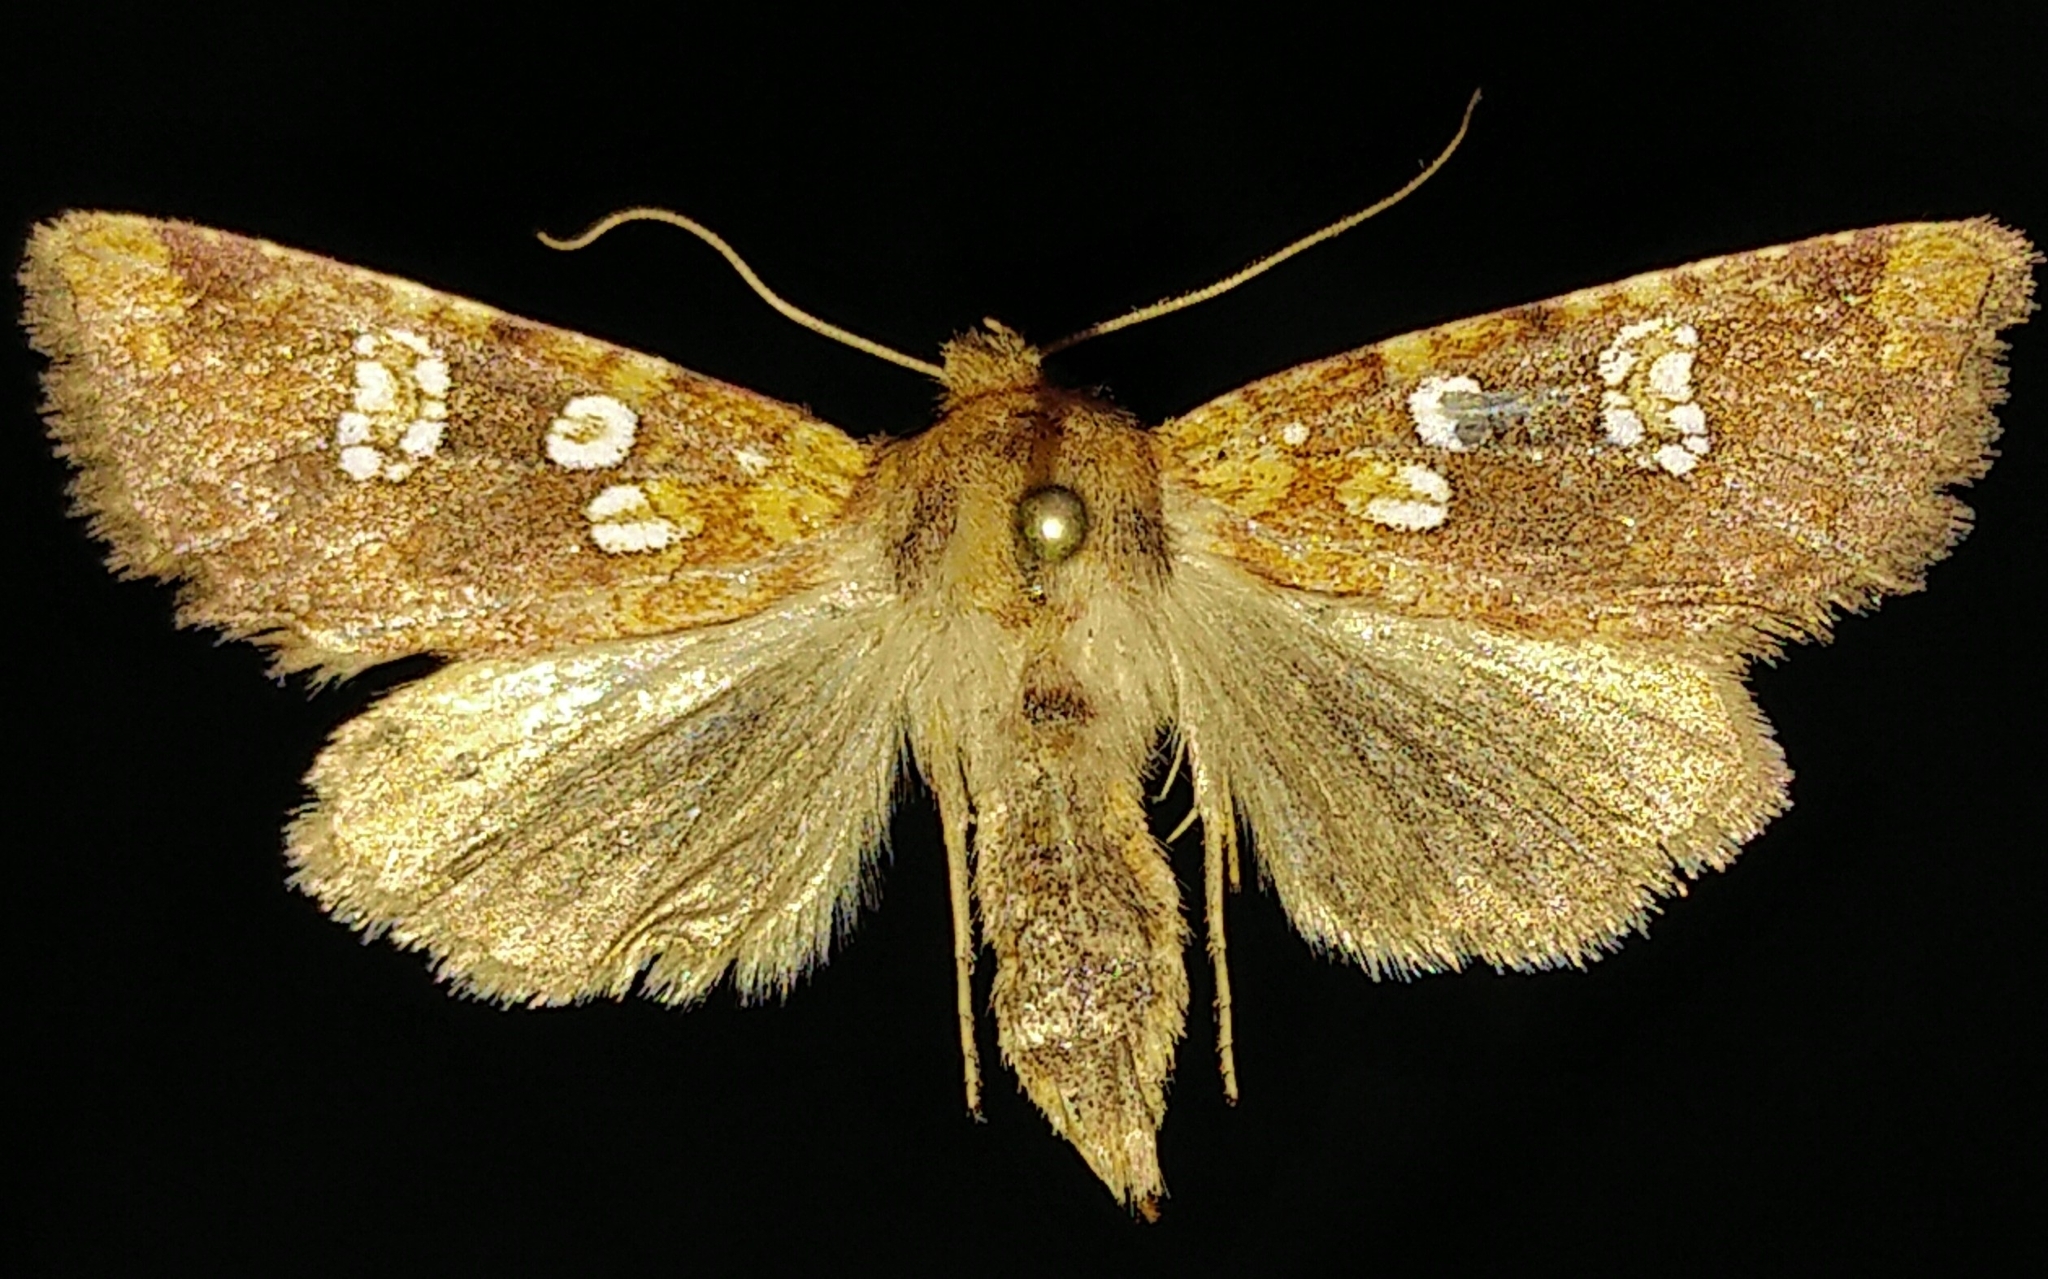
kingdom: Animalia
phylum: Arthropoda
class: Insecta
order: Lepidoptera
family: Noctuidae
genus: Hydroeciodes
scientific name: Hydroeciodes serrata
